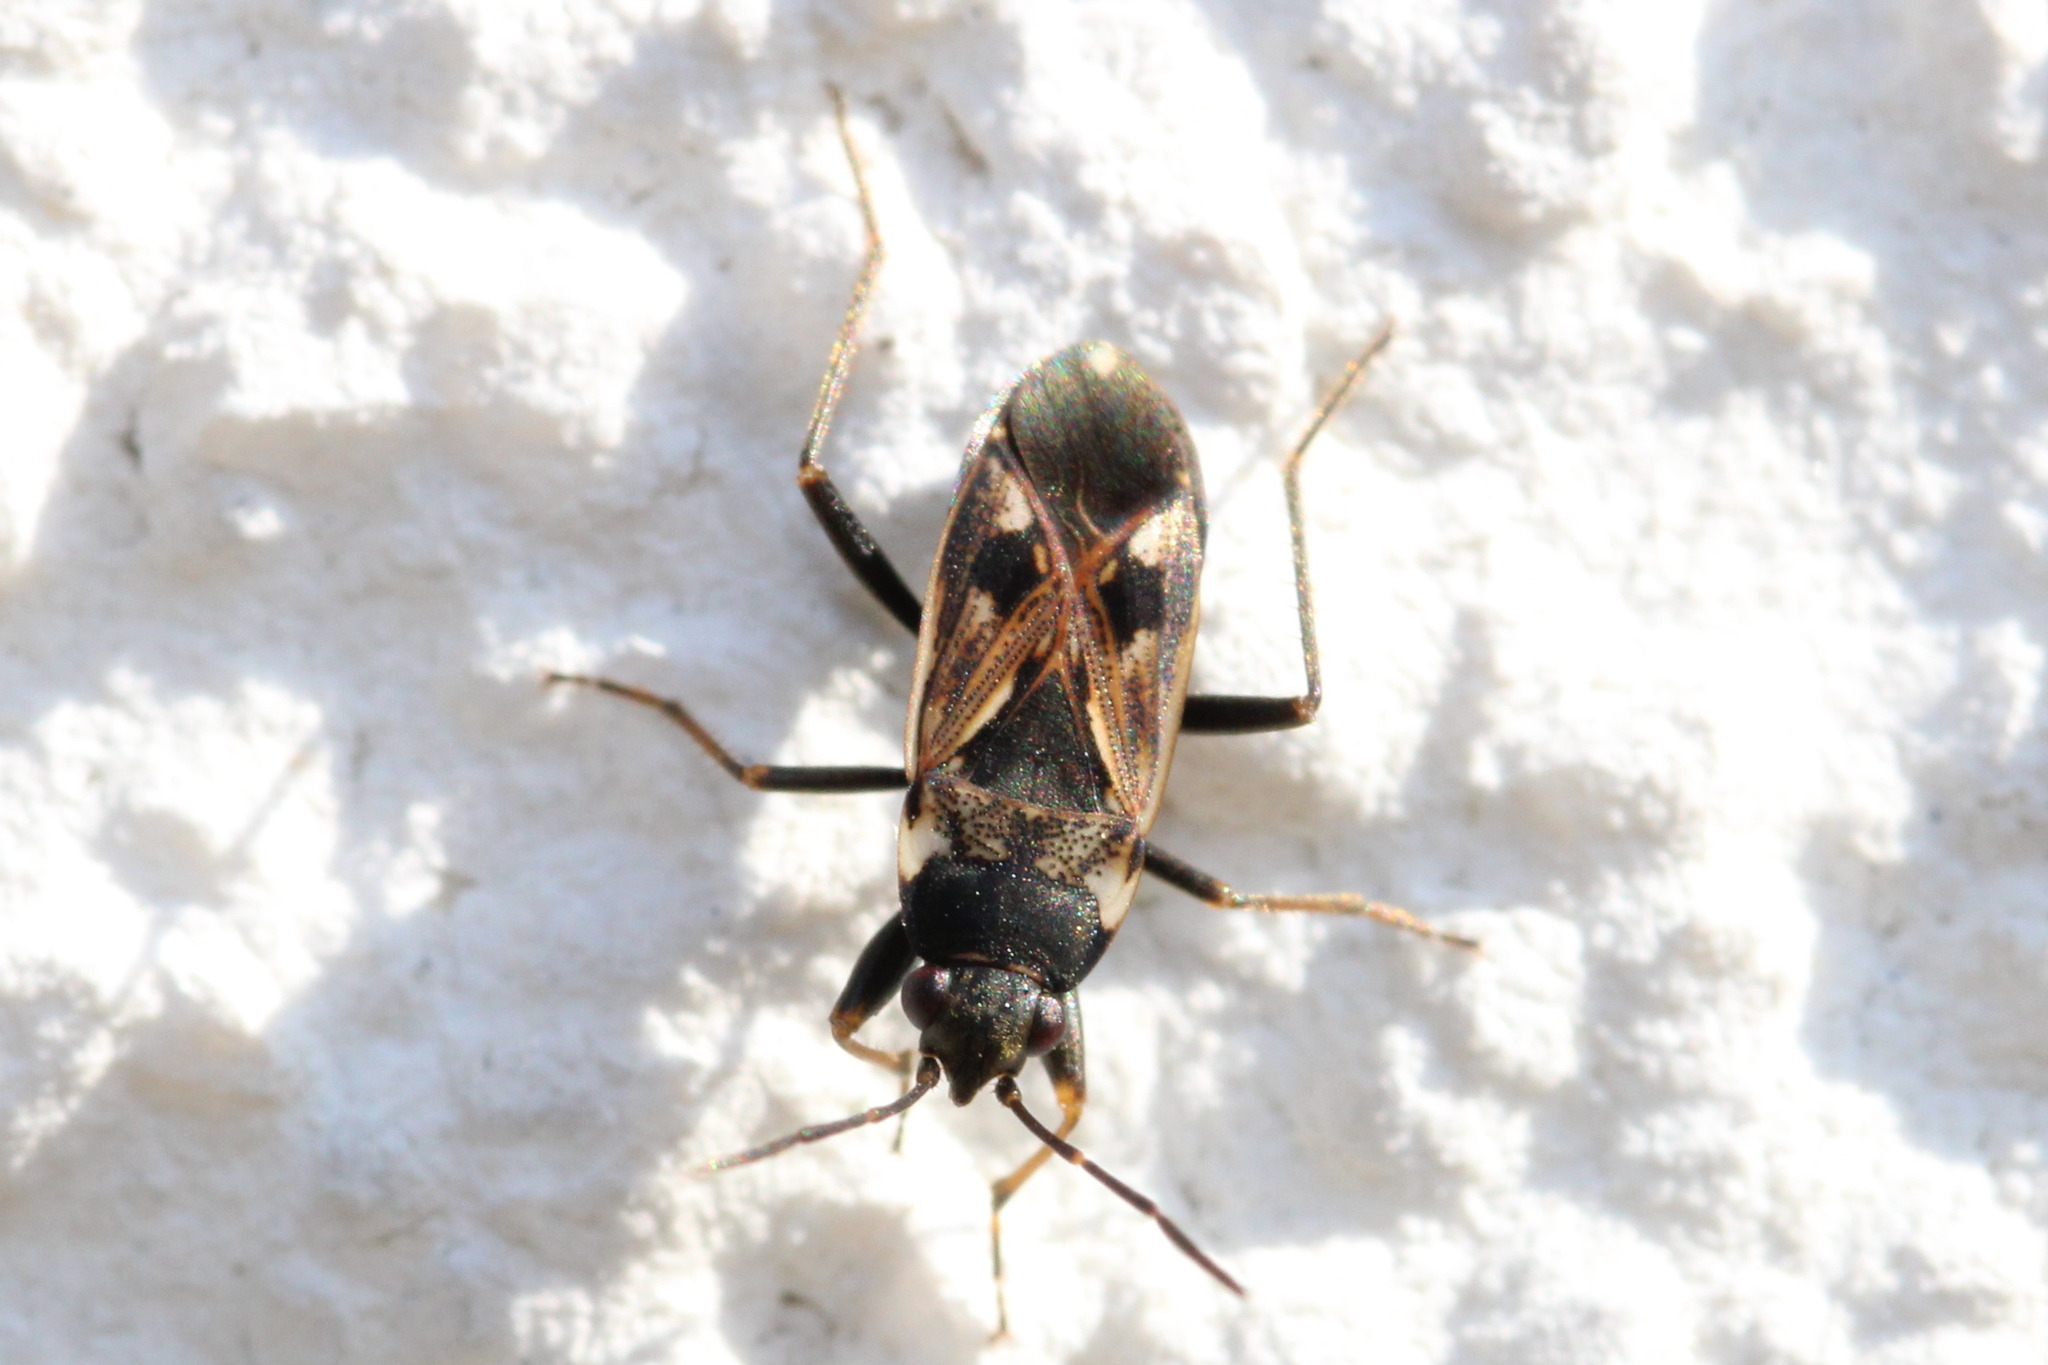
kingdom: Animalia
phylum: Arthropoda
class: Insecta
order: Hemiptera
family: Rhyparochromidae
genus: Rhyparochromus
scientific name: Rhyparochromus vulgaris
